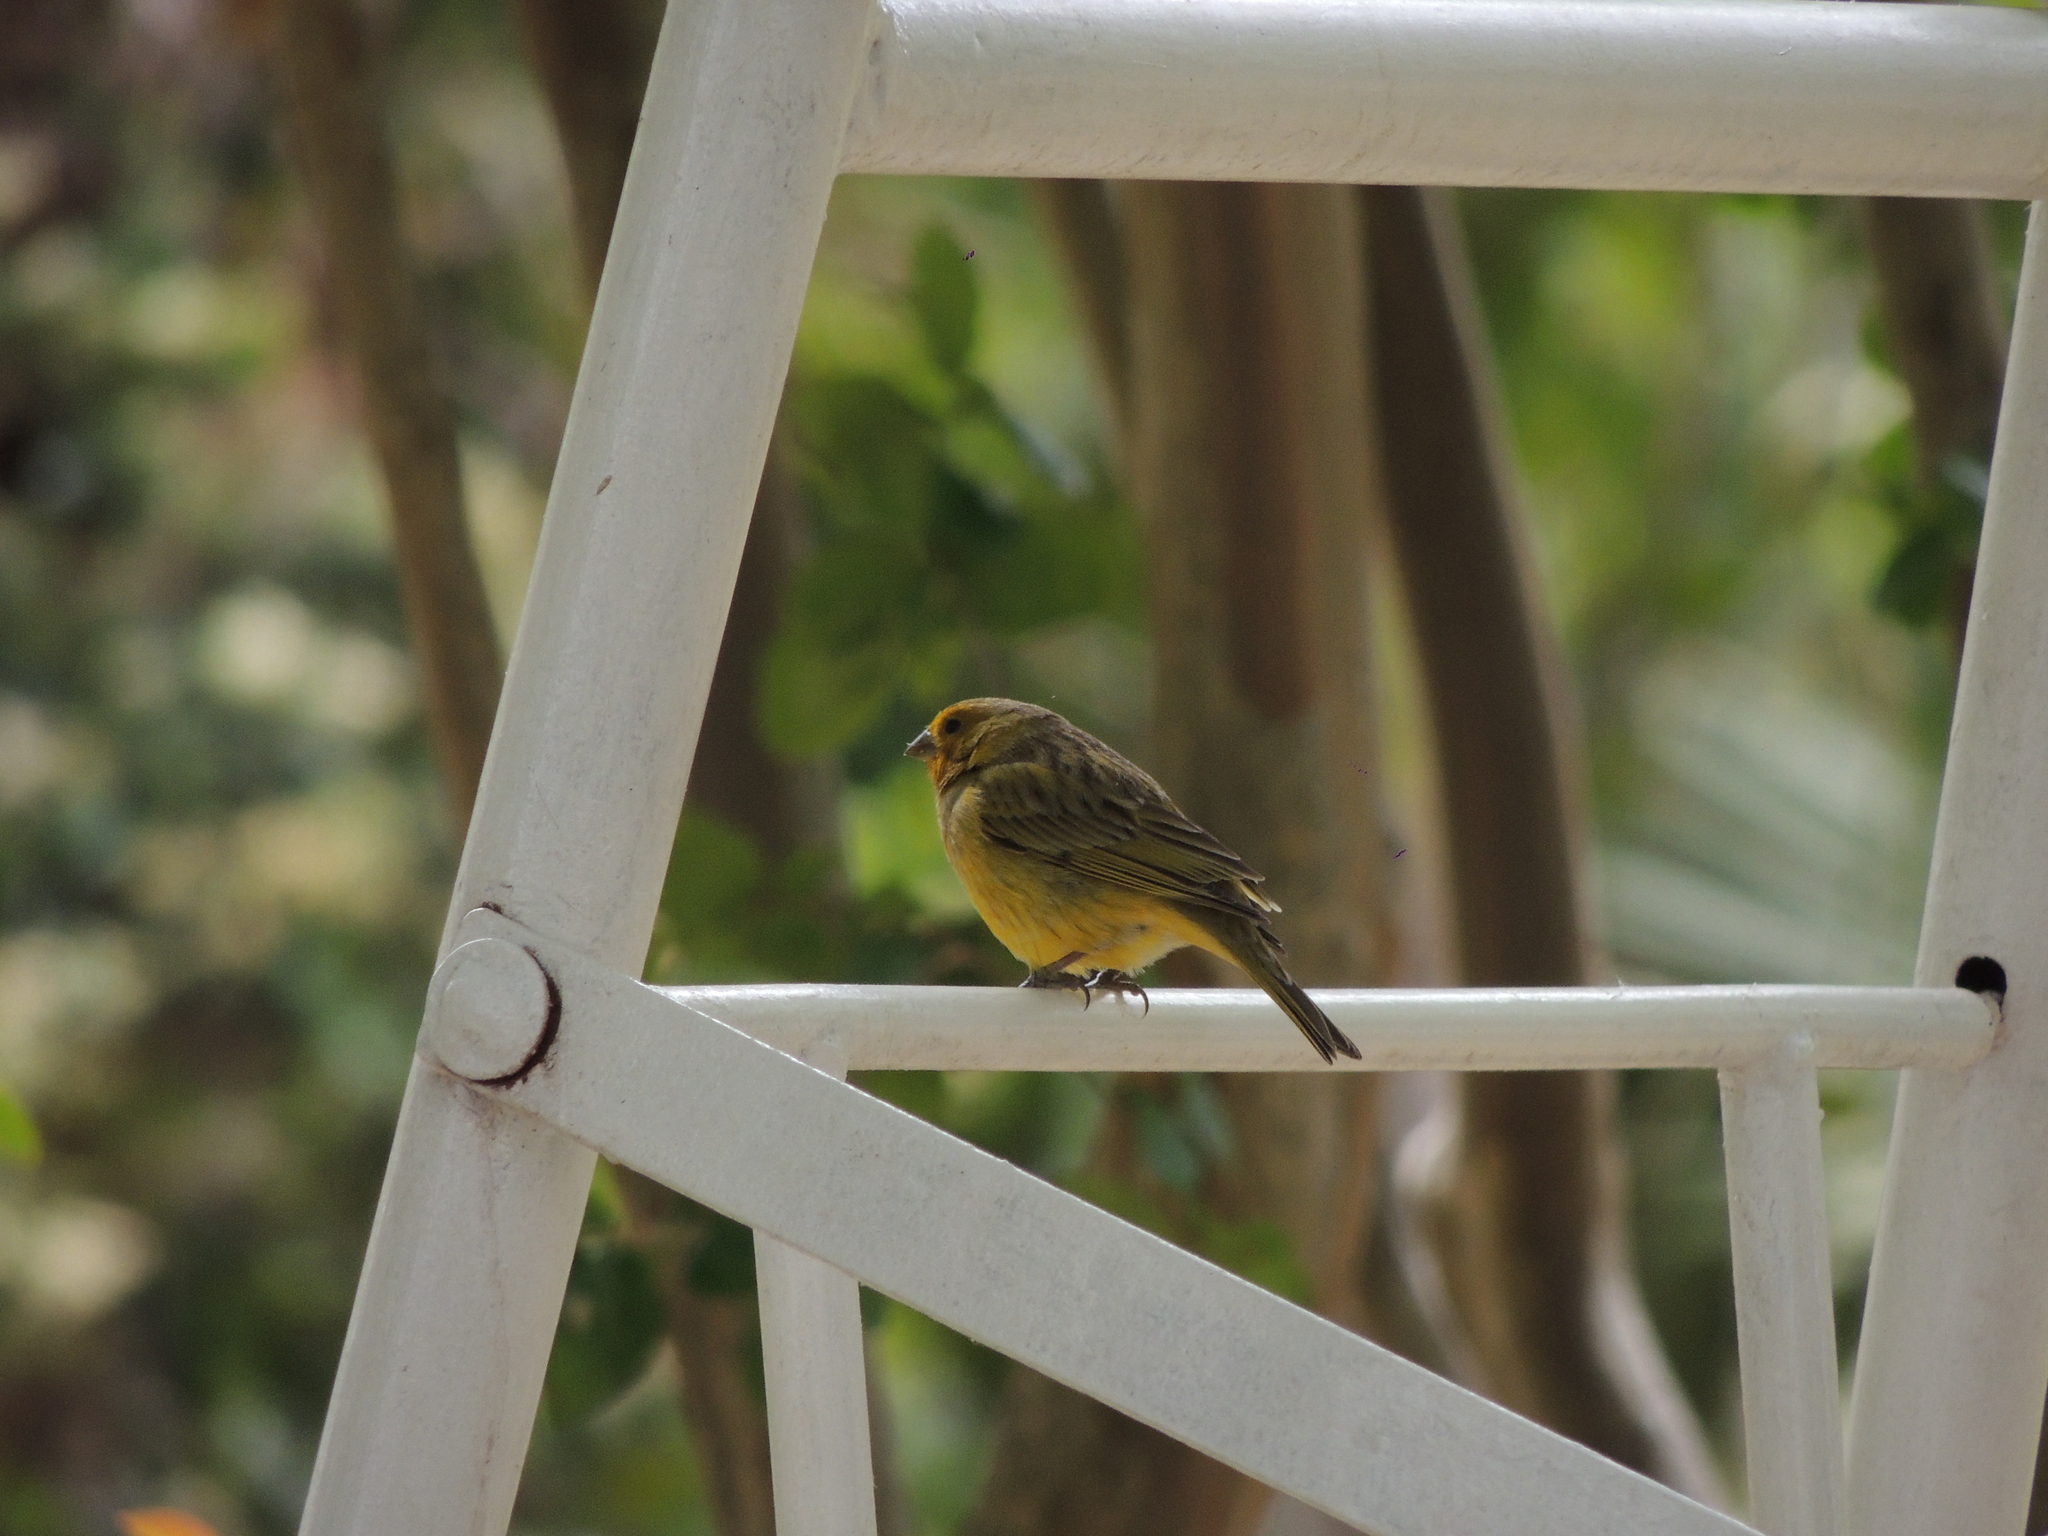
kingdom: Animalia
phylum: Chordata
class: Aves
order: Passeriformes
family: Thraupidae
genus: Sicalis
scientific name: Sicalis flaveola
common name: Saffron finch
